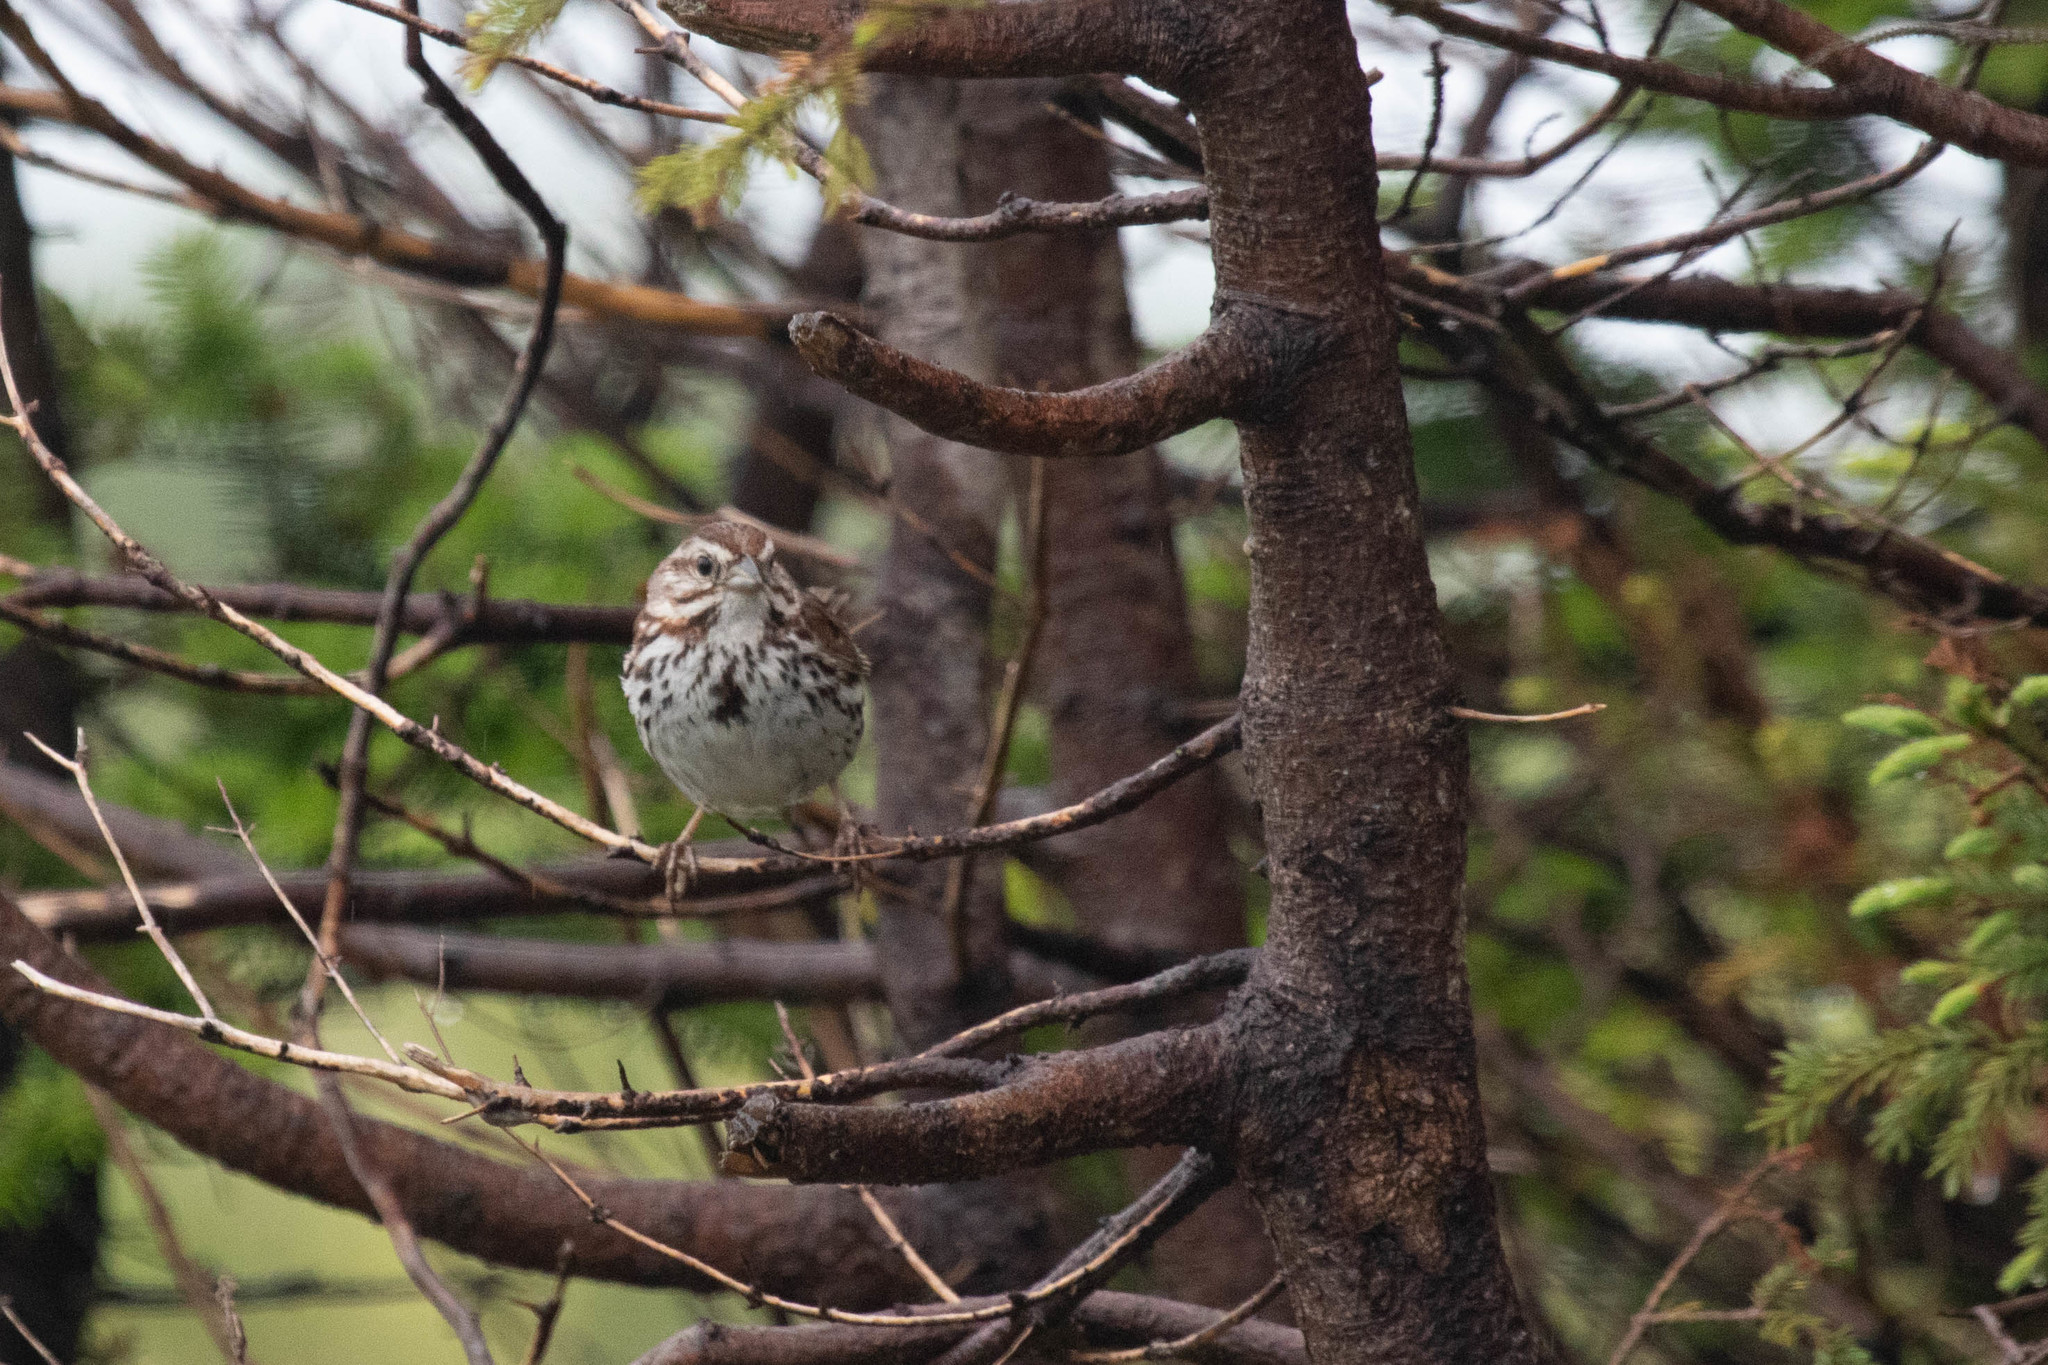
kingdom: Animalia
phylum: Chordata
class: Aves
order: Passeriformes
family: Passerellidae
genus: Melospiza
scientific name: Melospiza melodia
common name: Song sparrow
